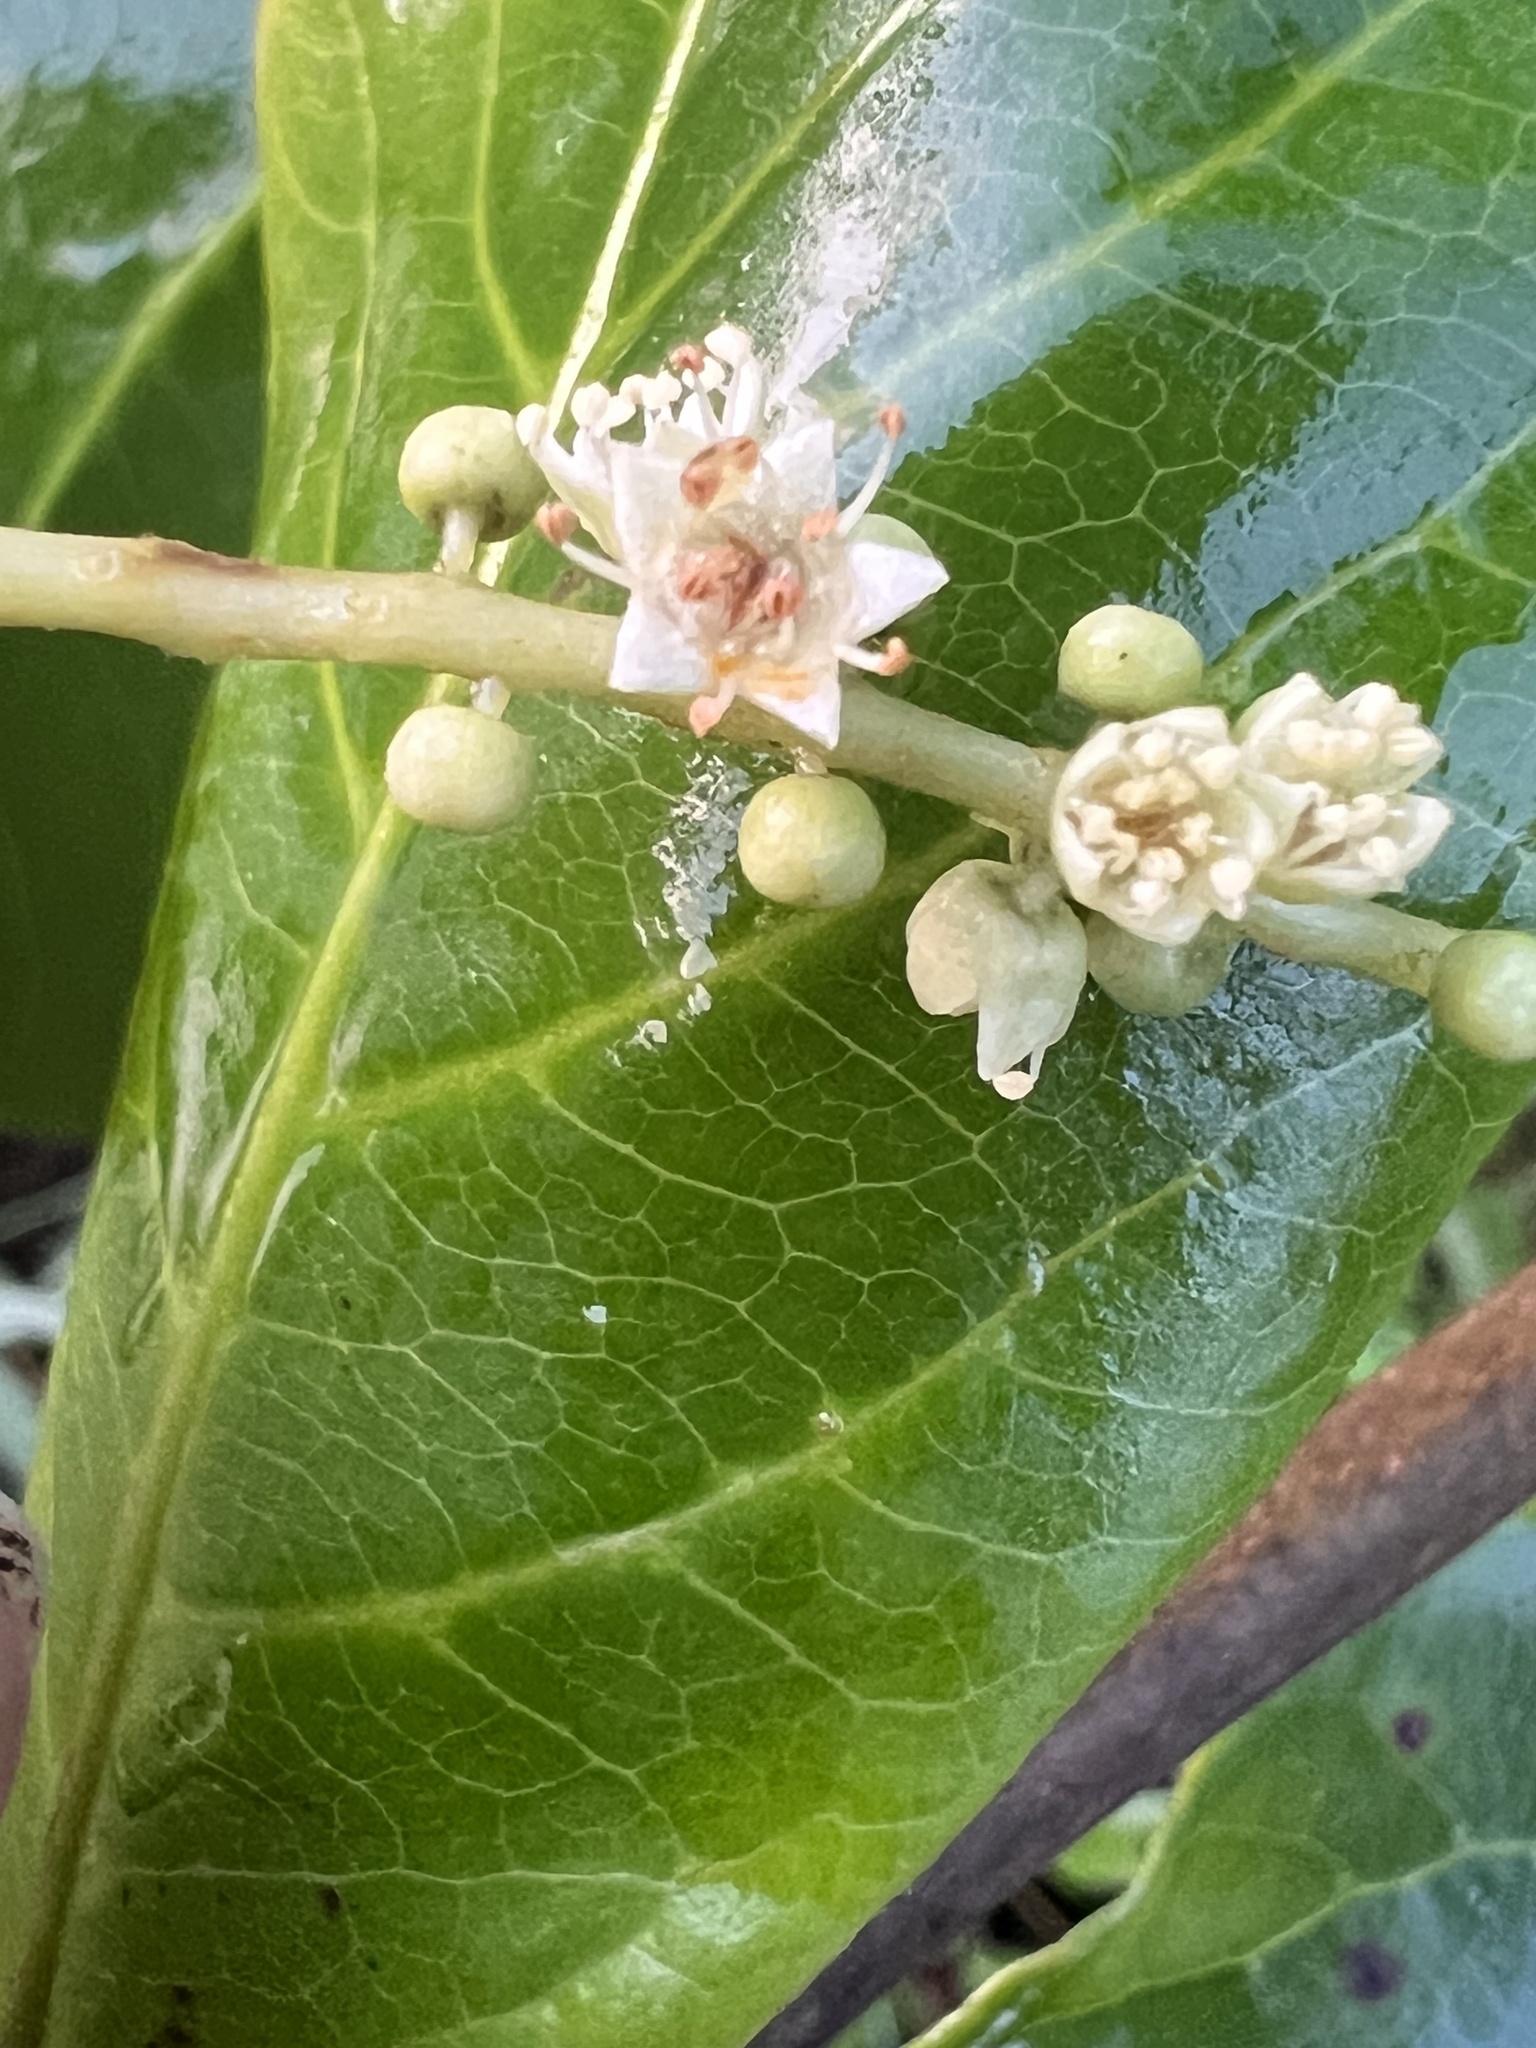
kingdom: Plantae
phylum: Tracheophyta
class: Magnoliopsida
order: Myrtales
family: Combretaceae
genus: Terminalia
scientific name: Terminalia catappa
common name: Tropical almond
